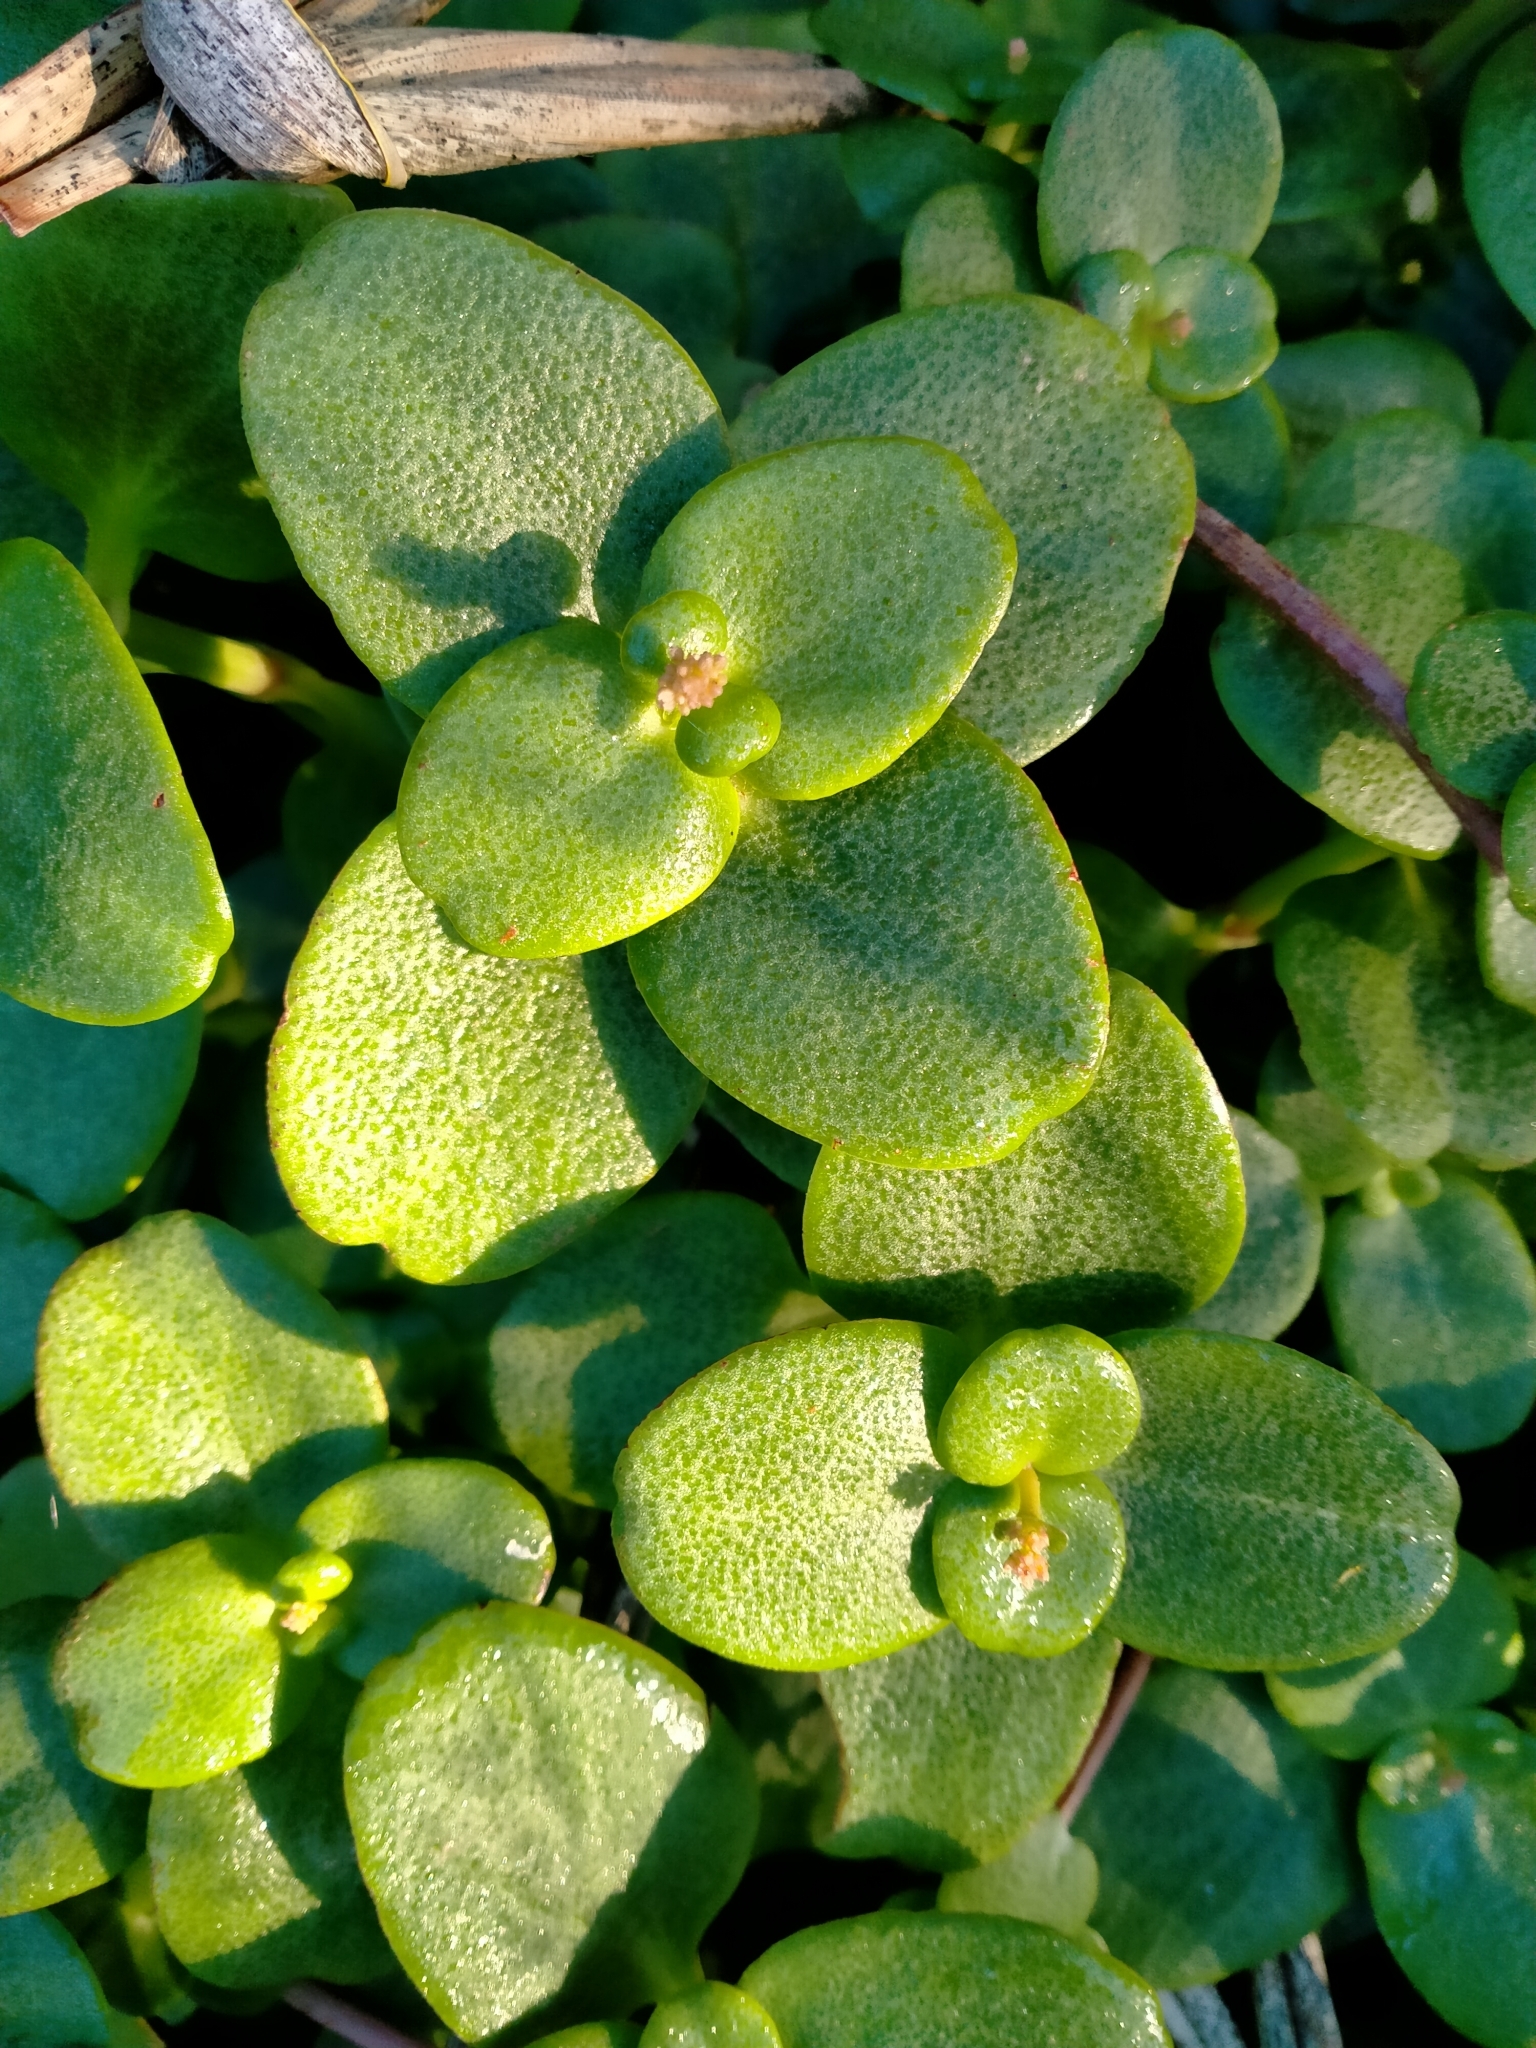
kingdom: Plantae
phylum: Tracheophyta
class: Magnoliopsida
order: Saxifragales
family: Crassulaceae
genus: Crassula
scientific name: Crassula multicava
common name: Cape province pygmyweed
